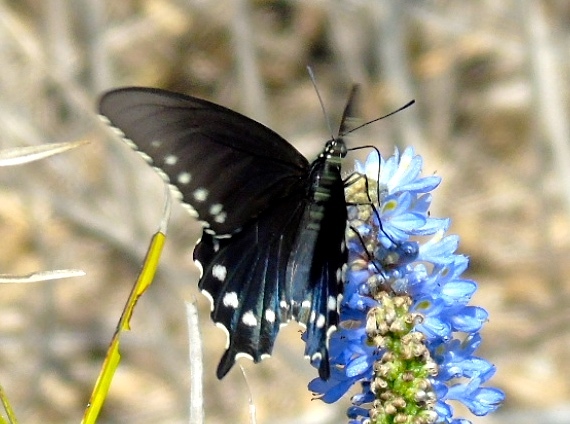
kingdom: Animalia
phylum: Arthropoda
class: Insecta
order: Lepidoptera
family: Papilionidae
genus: Battus
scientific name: Battus philenor
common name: Pipevine swallowtail
